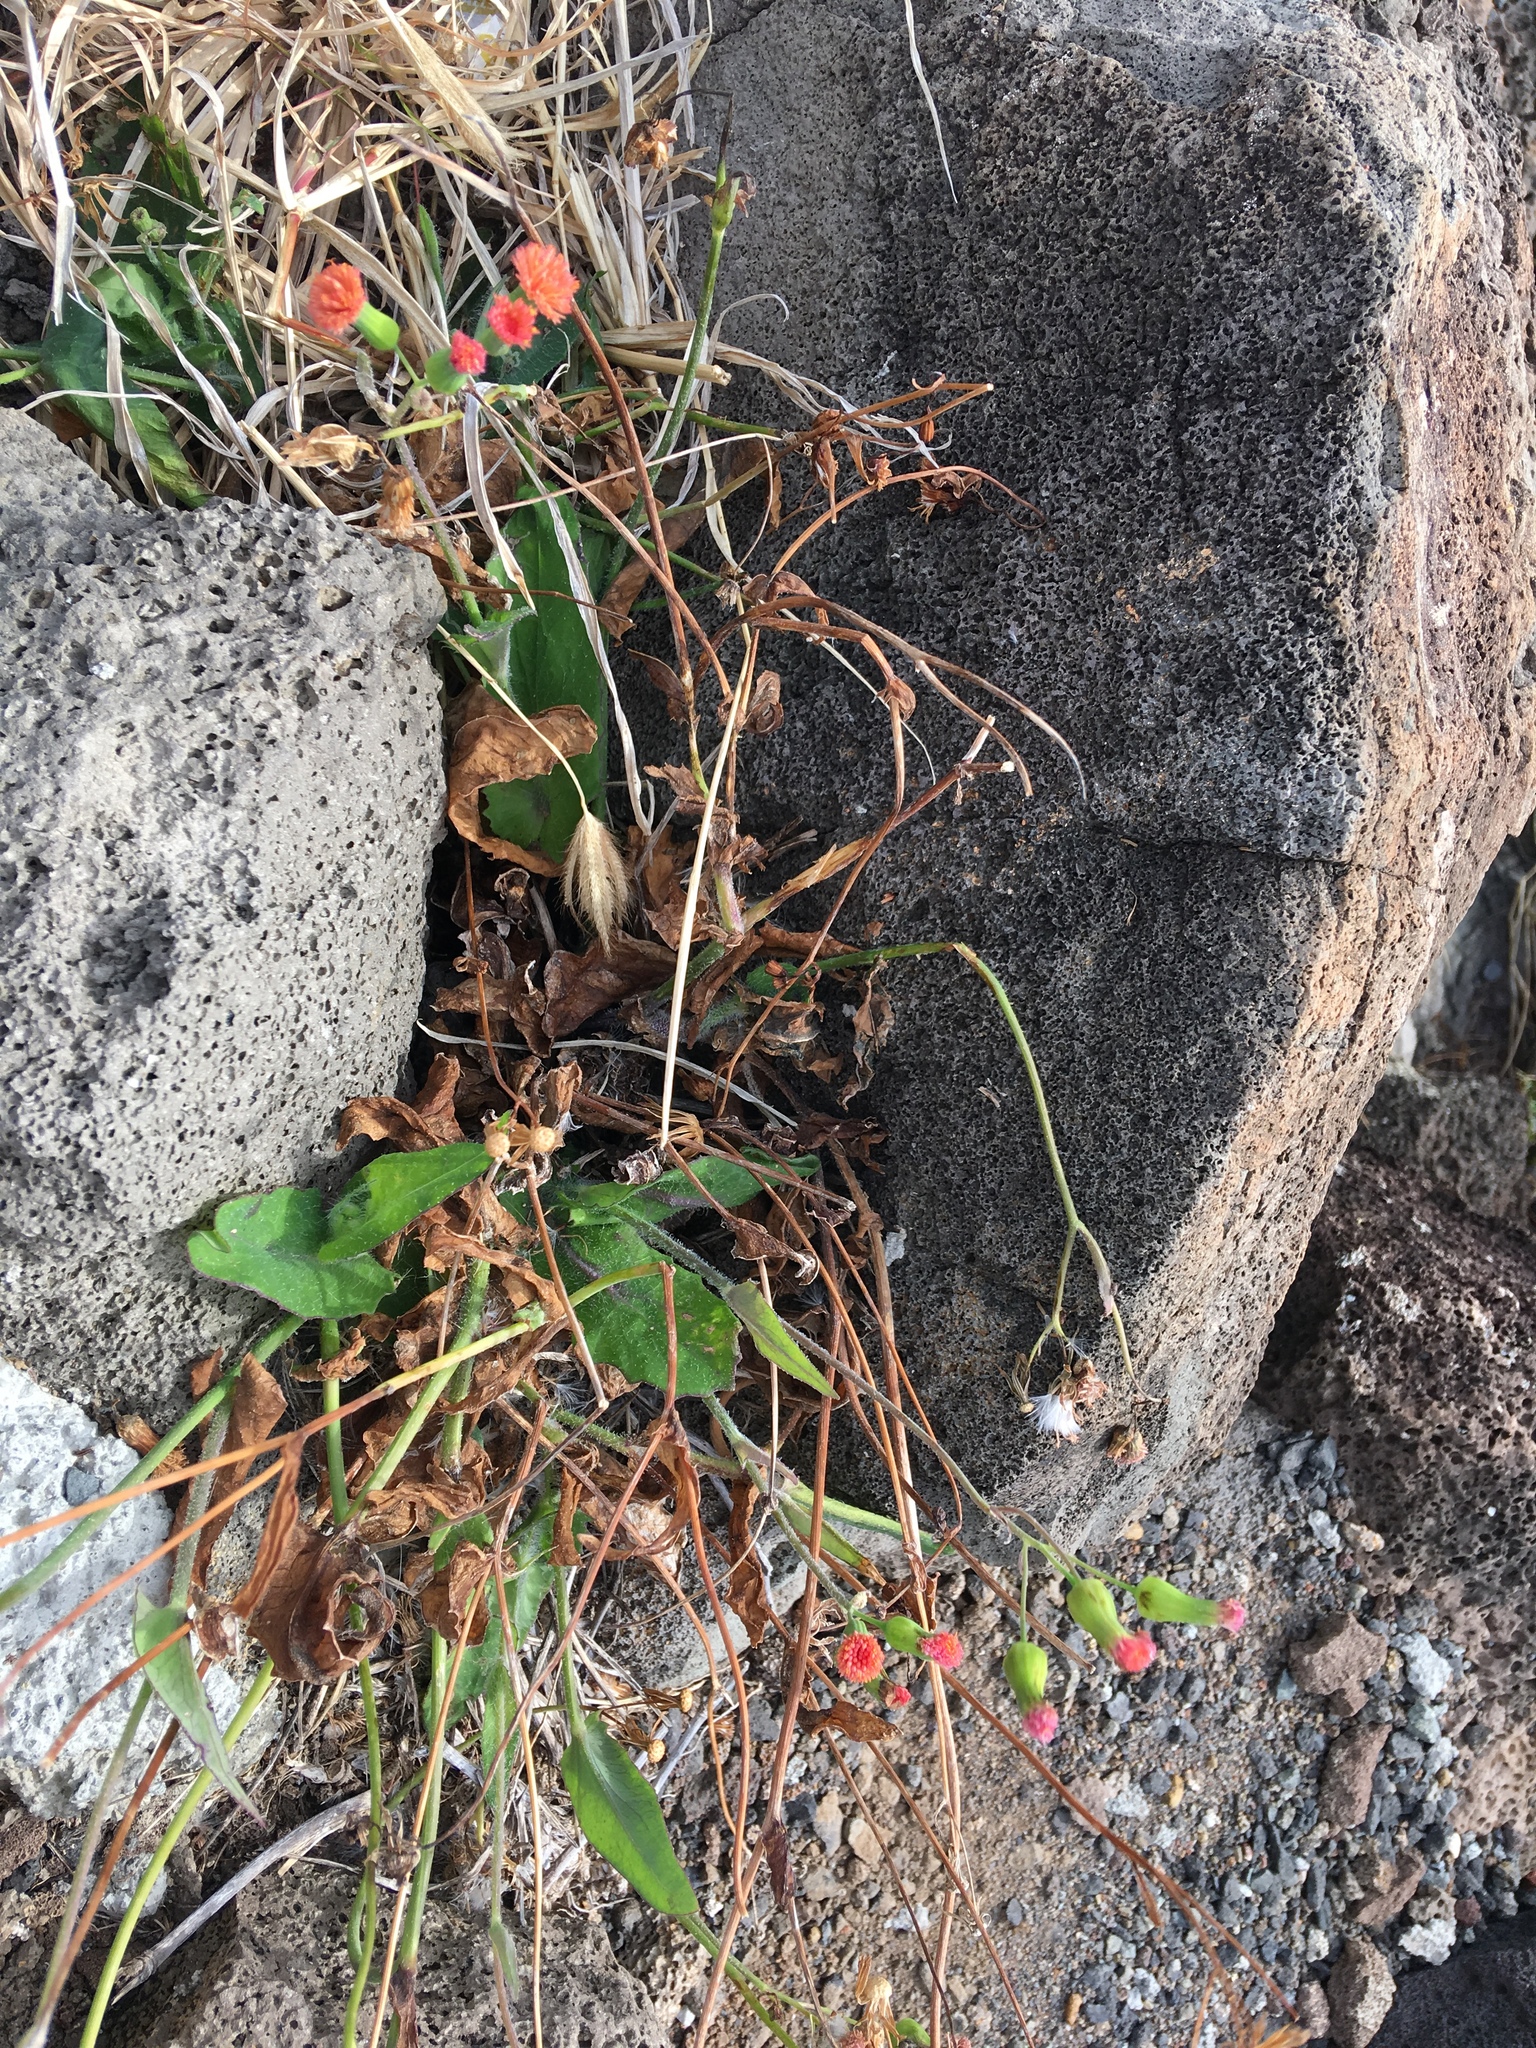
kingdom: Plantae
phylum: Tracheophyta
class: Magnoliopsida
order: Asterales
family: Asteraceae
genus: Emilia
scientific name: Emilia fosbergii
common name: Florida tasselflower
